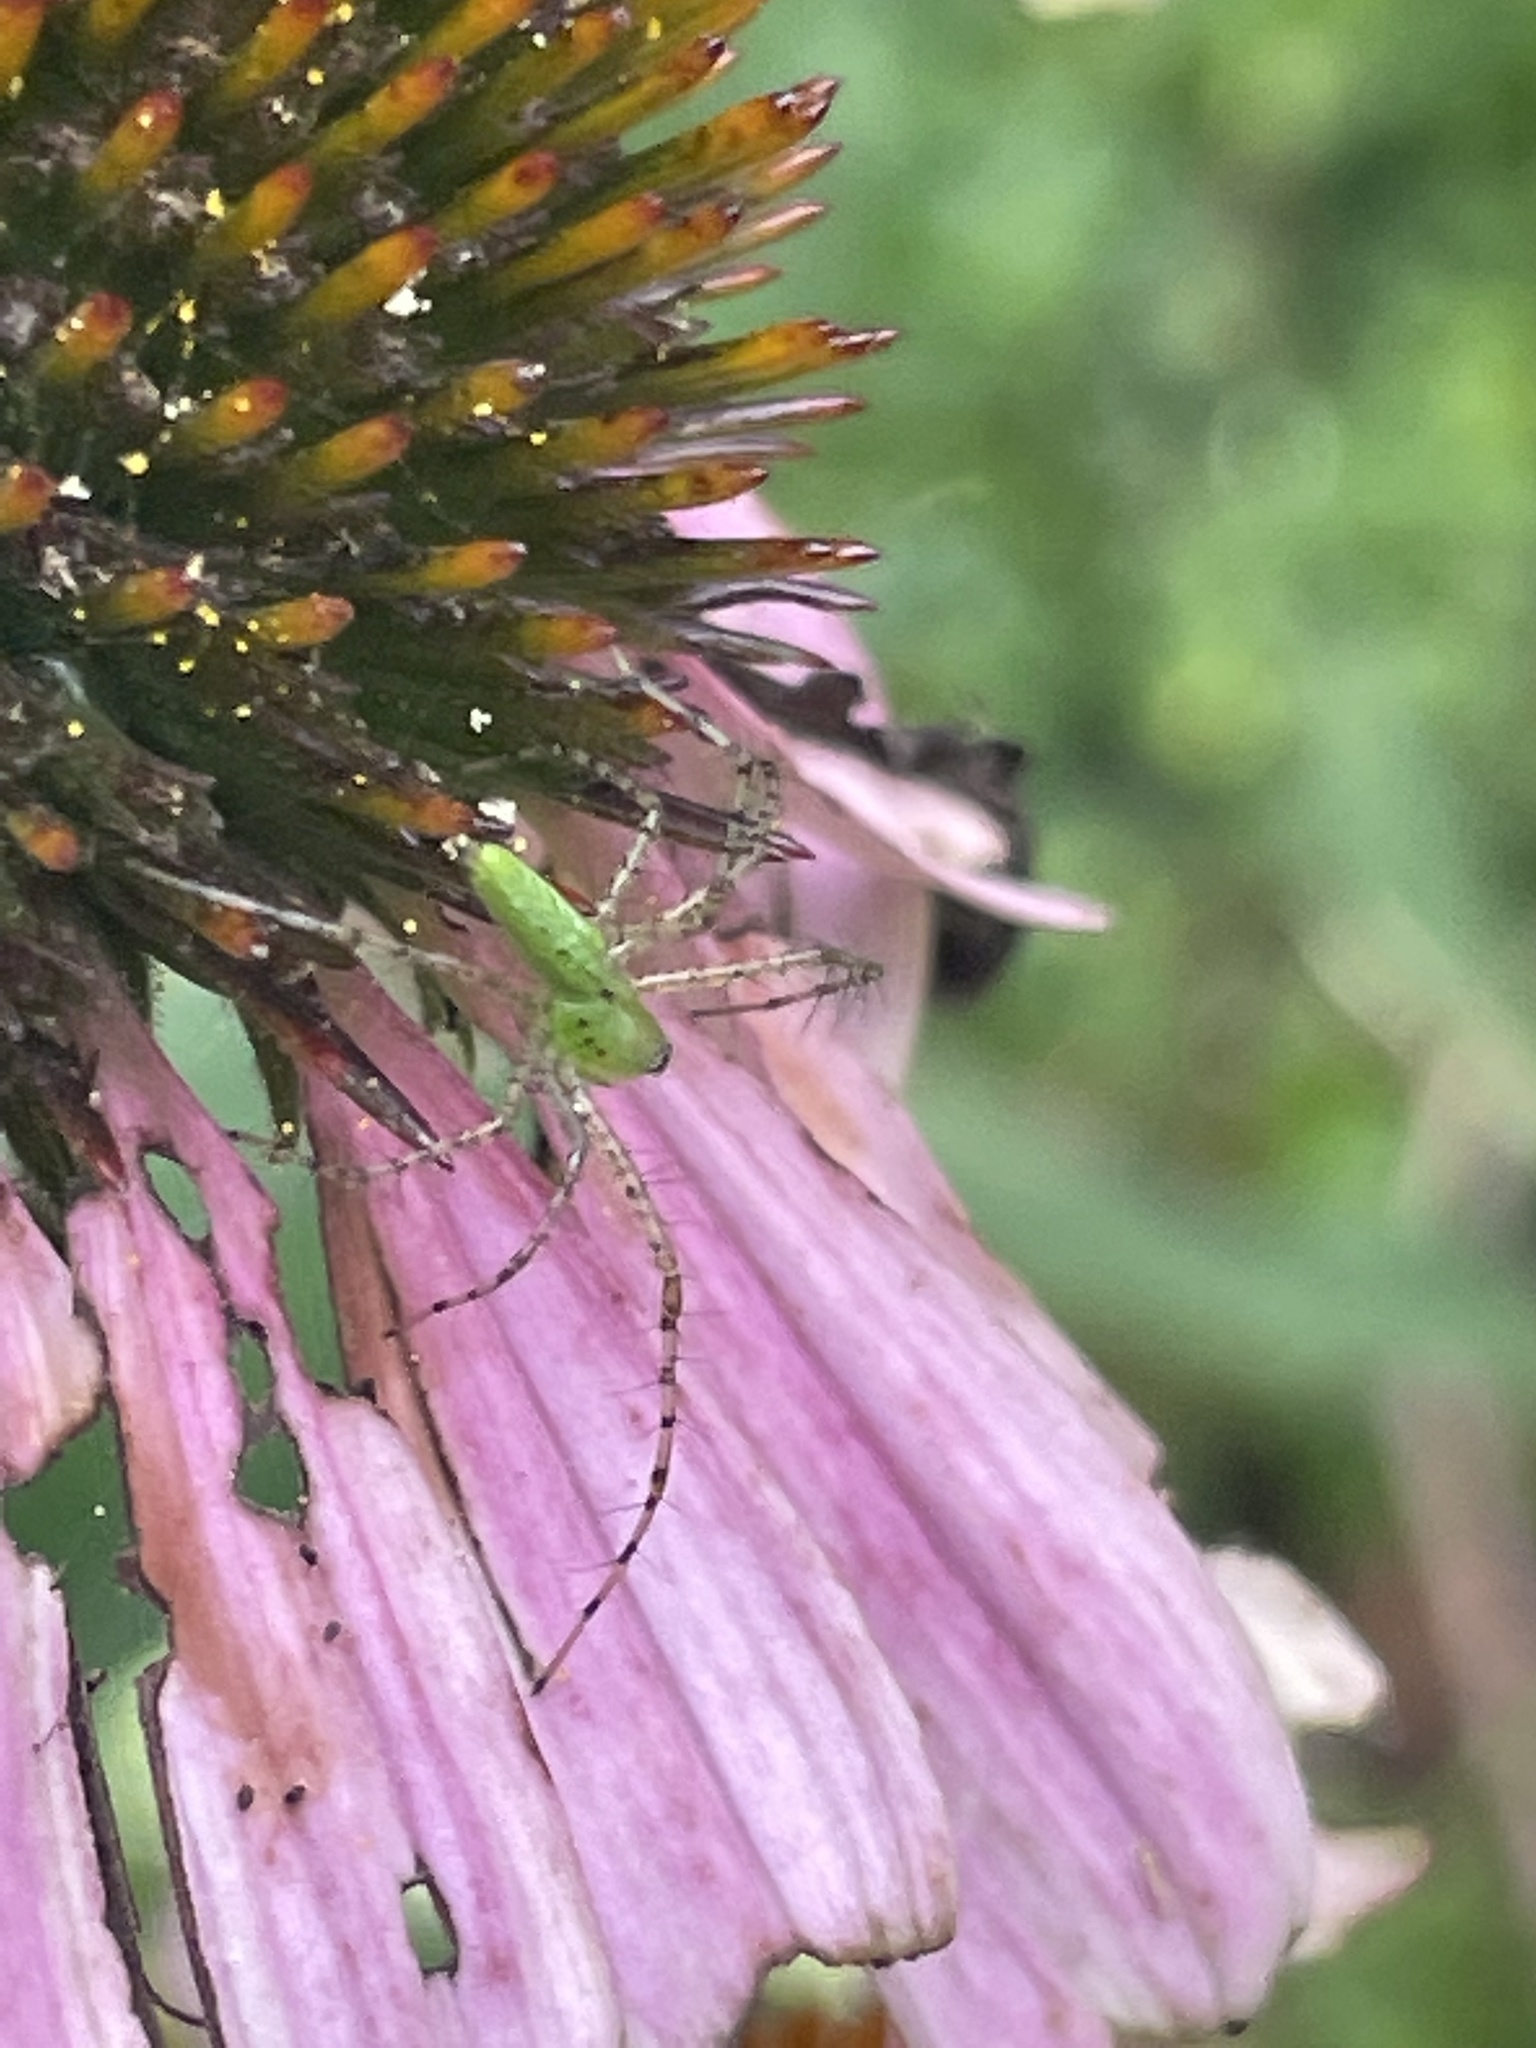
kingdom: Animalia
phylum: Arthropoda
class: Arachnida
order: Araneae
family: Oxyopidae
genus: Peucetia
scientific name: Peucetia viridans
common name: Lynx spiders
